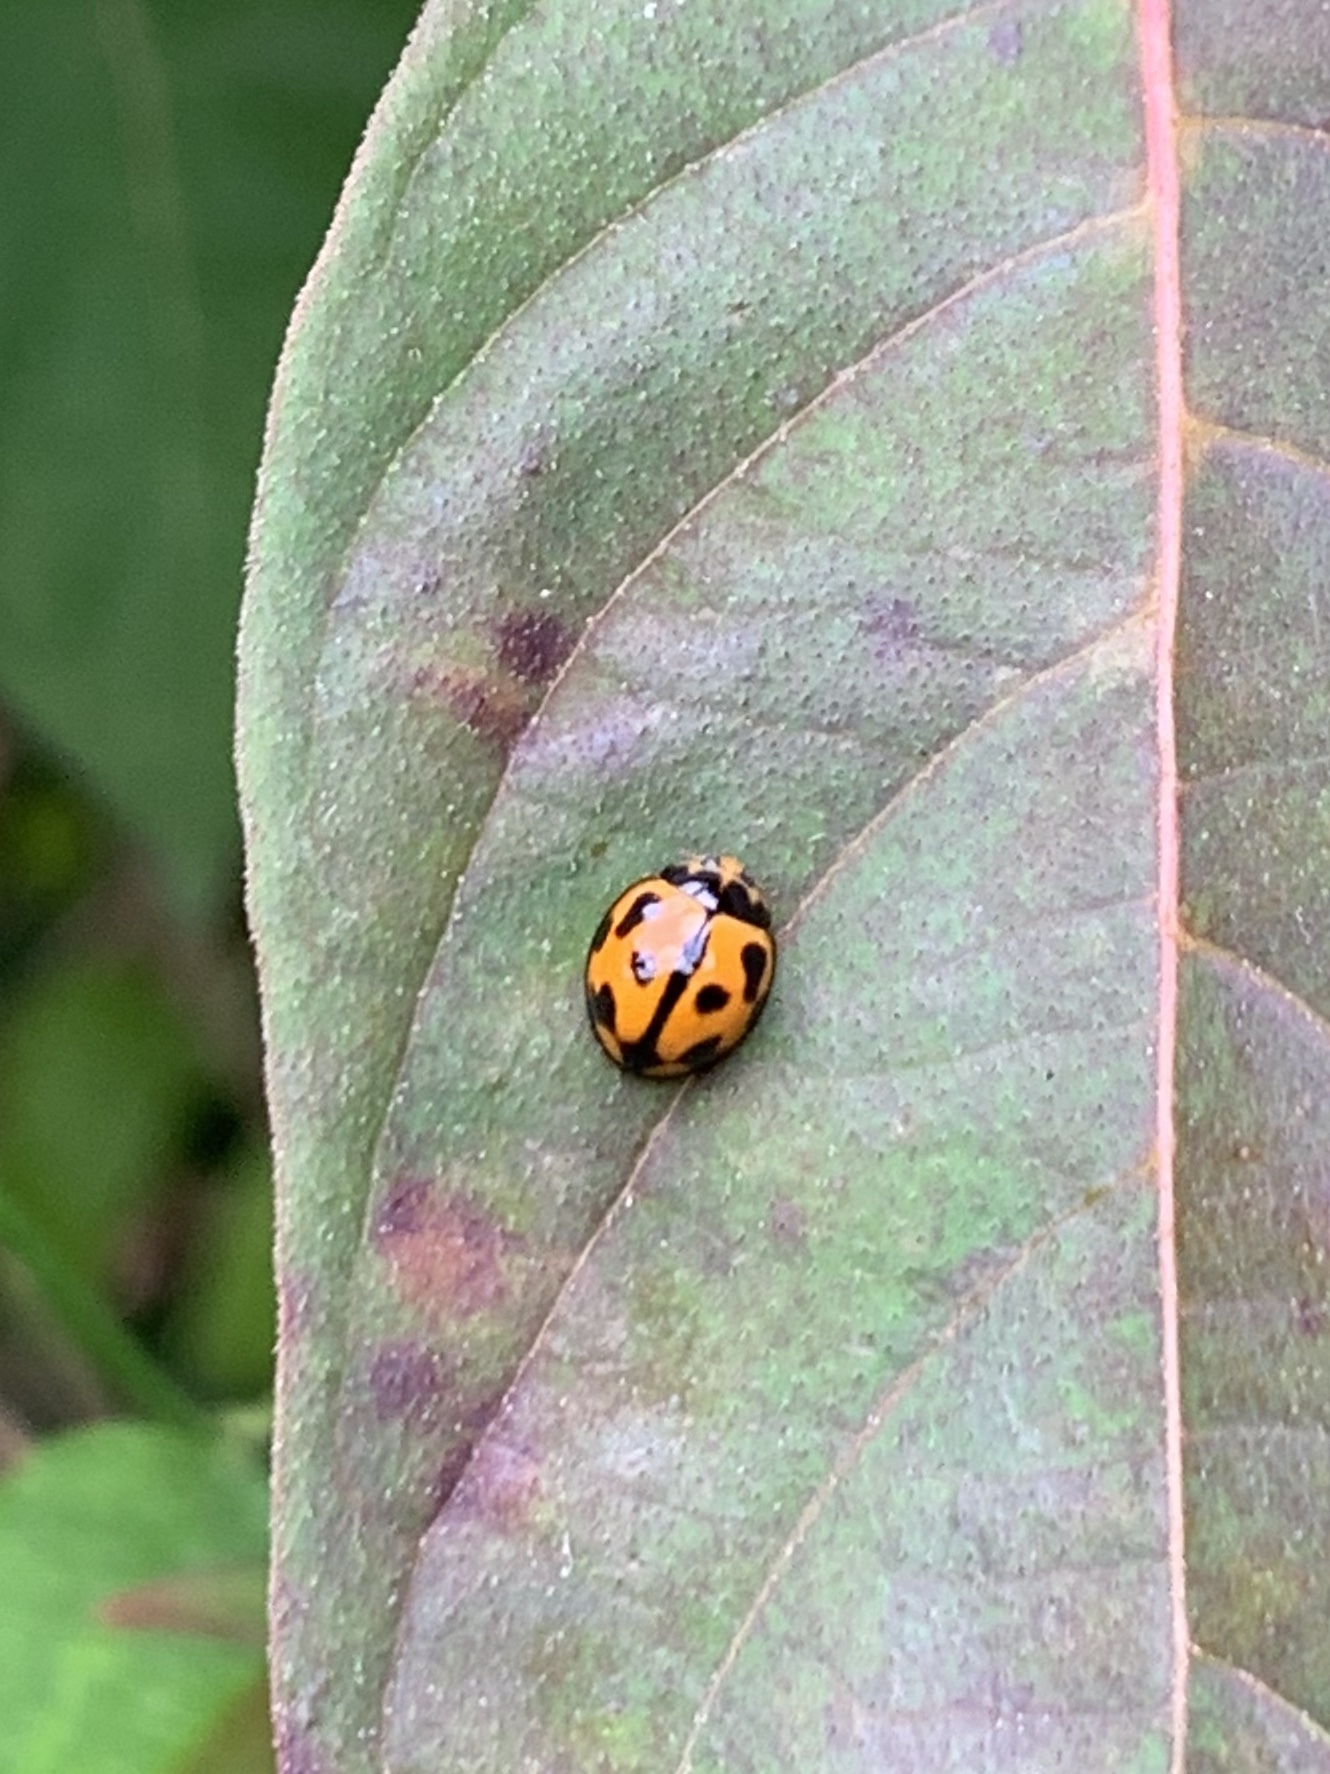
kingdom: Animalia
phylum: Arthropoda
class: Insecta
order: Coleoptera
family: Coccinellidae
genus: Coelophora
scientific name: Coelophora inaequalis
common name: Common australian lady beetle
